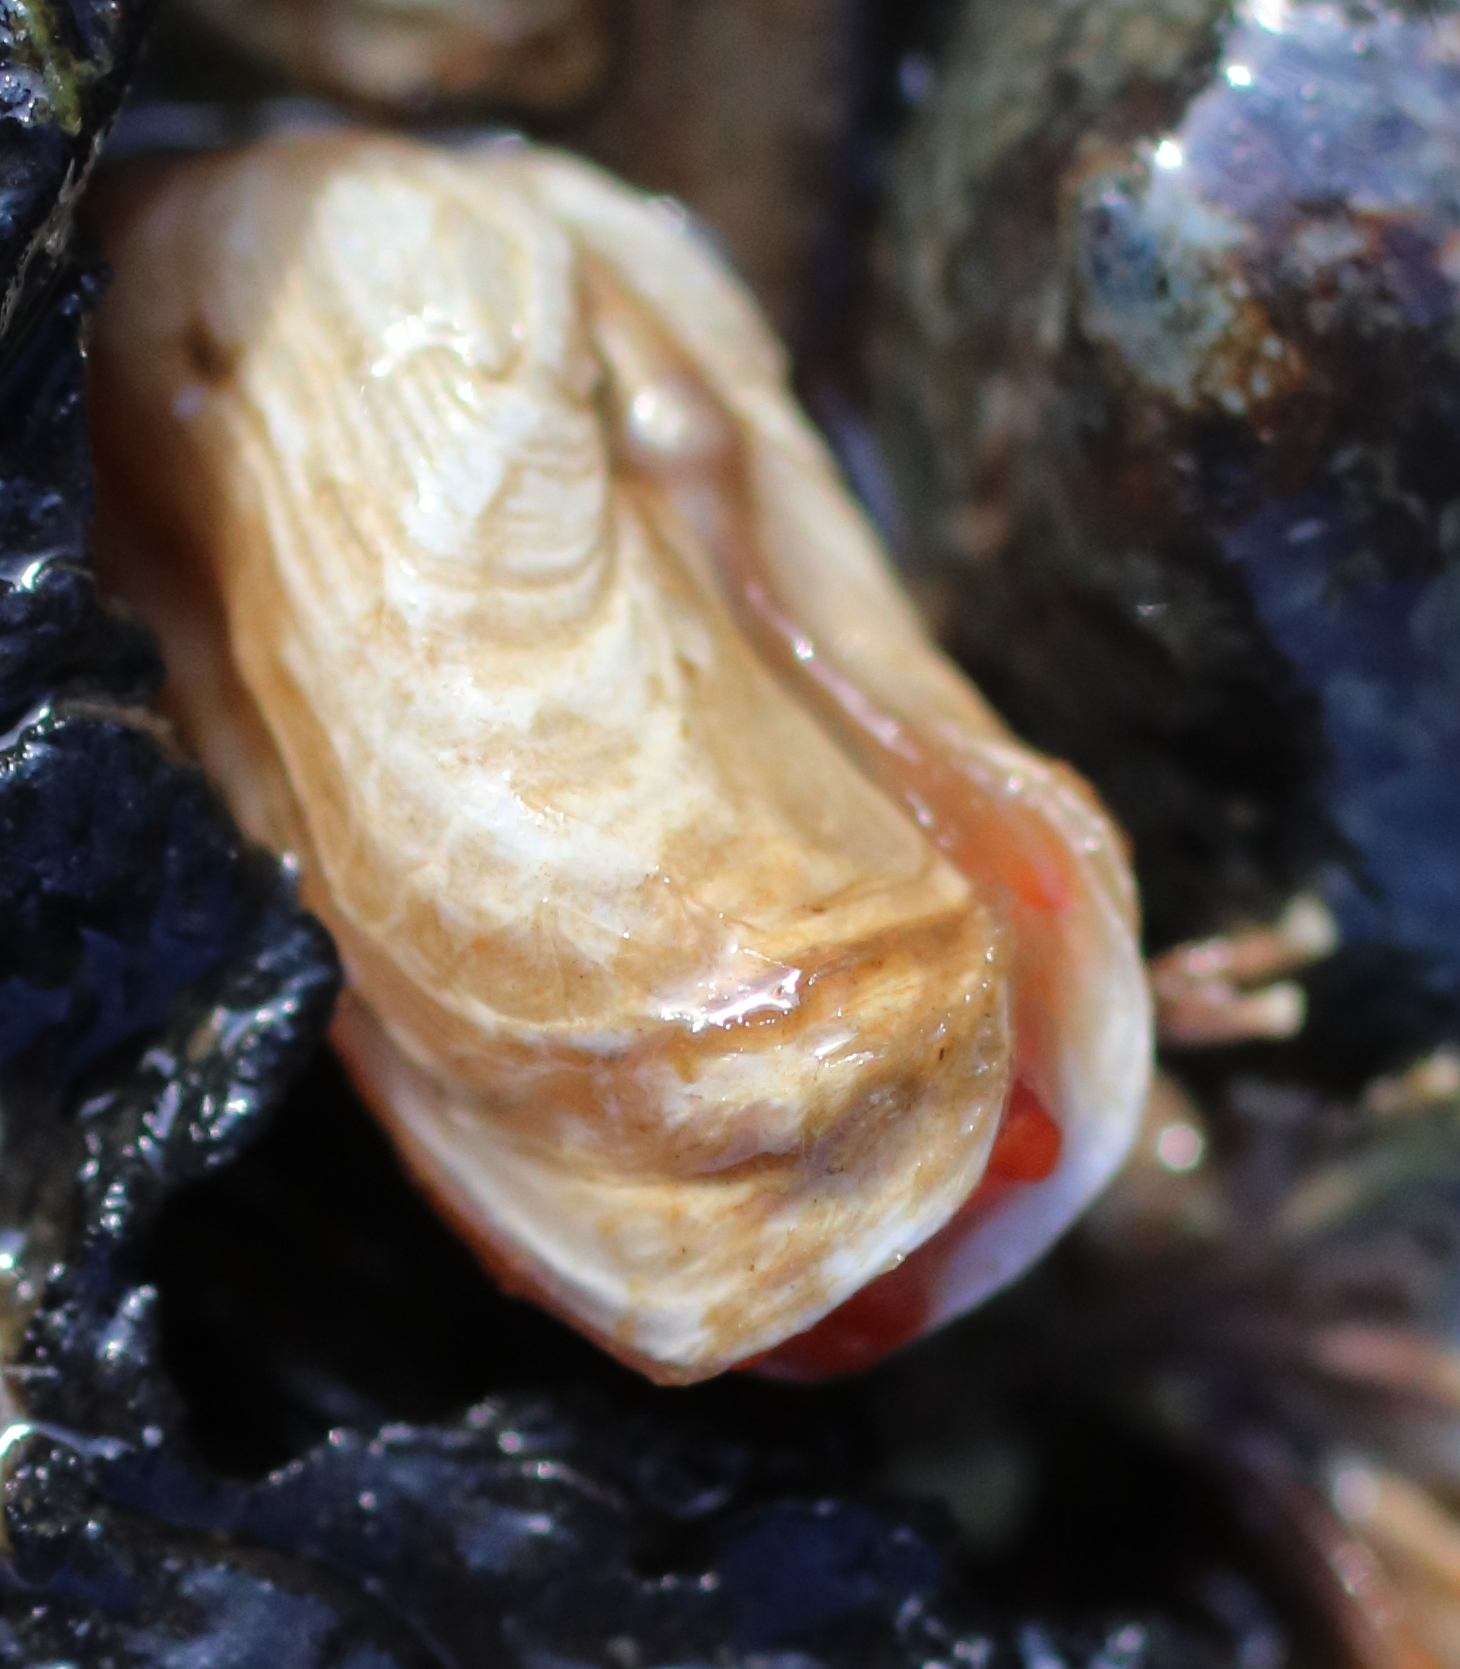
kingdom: Animalia
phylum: Mollusca
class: Bivalvia
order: Adapedonta
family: Hiatellidae
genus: Hiatella
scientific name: Hiatella arctica
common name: Arctic hiatella
